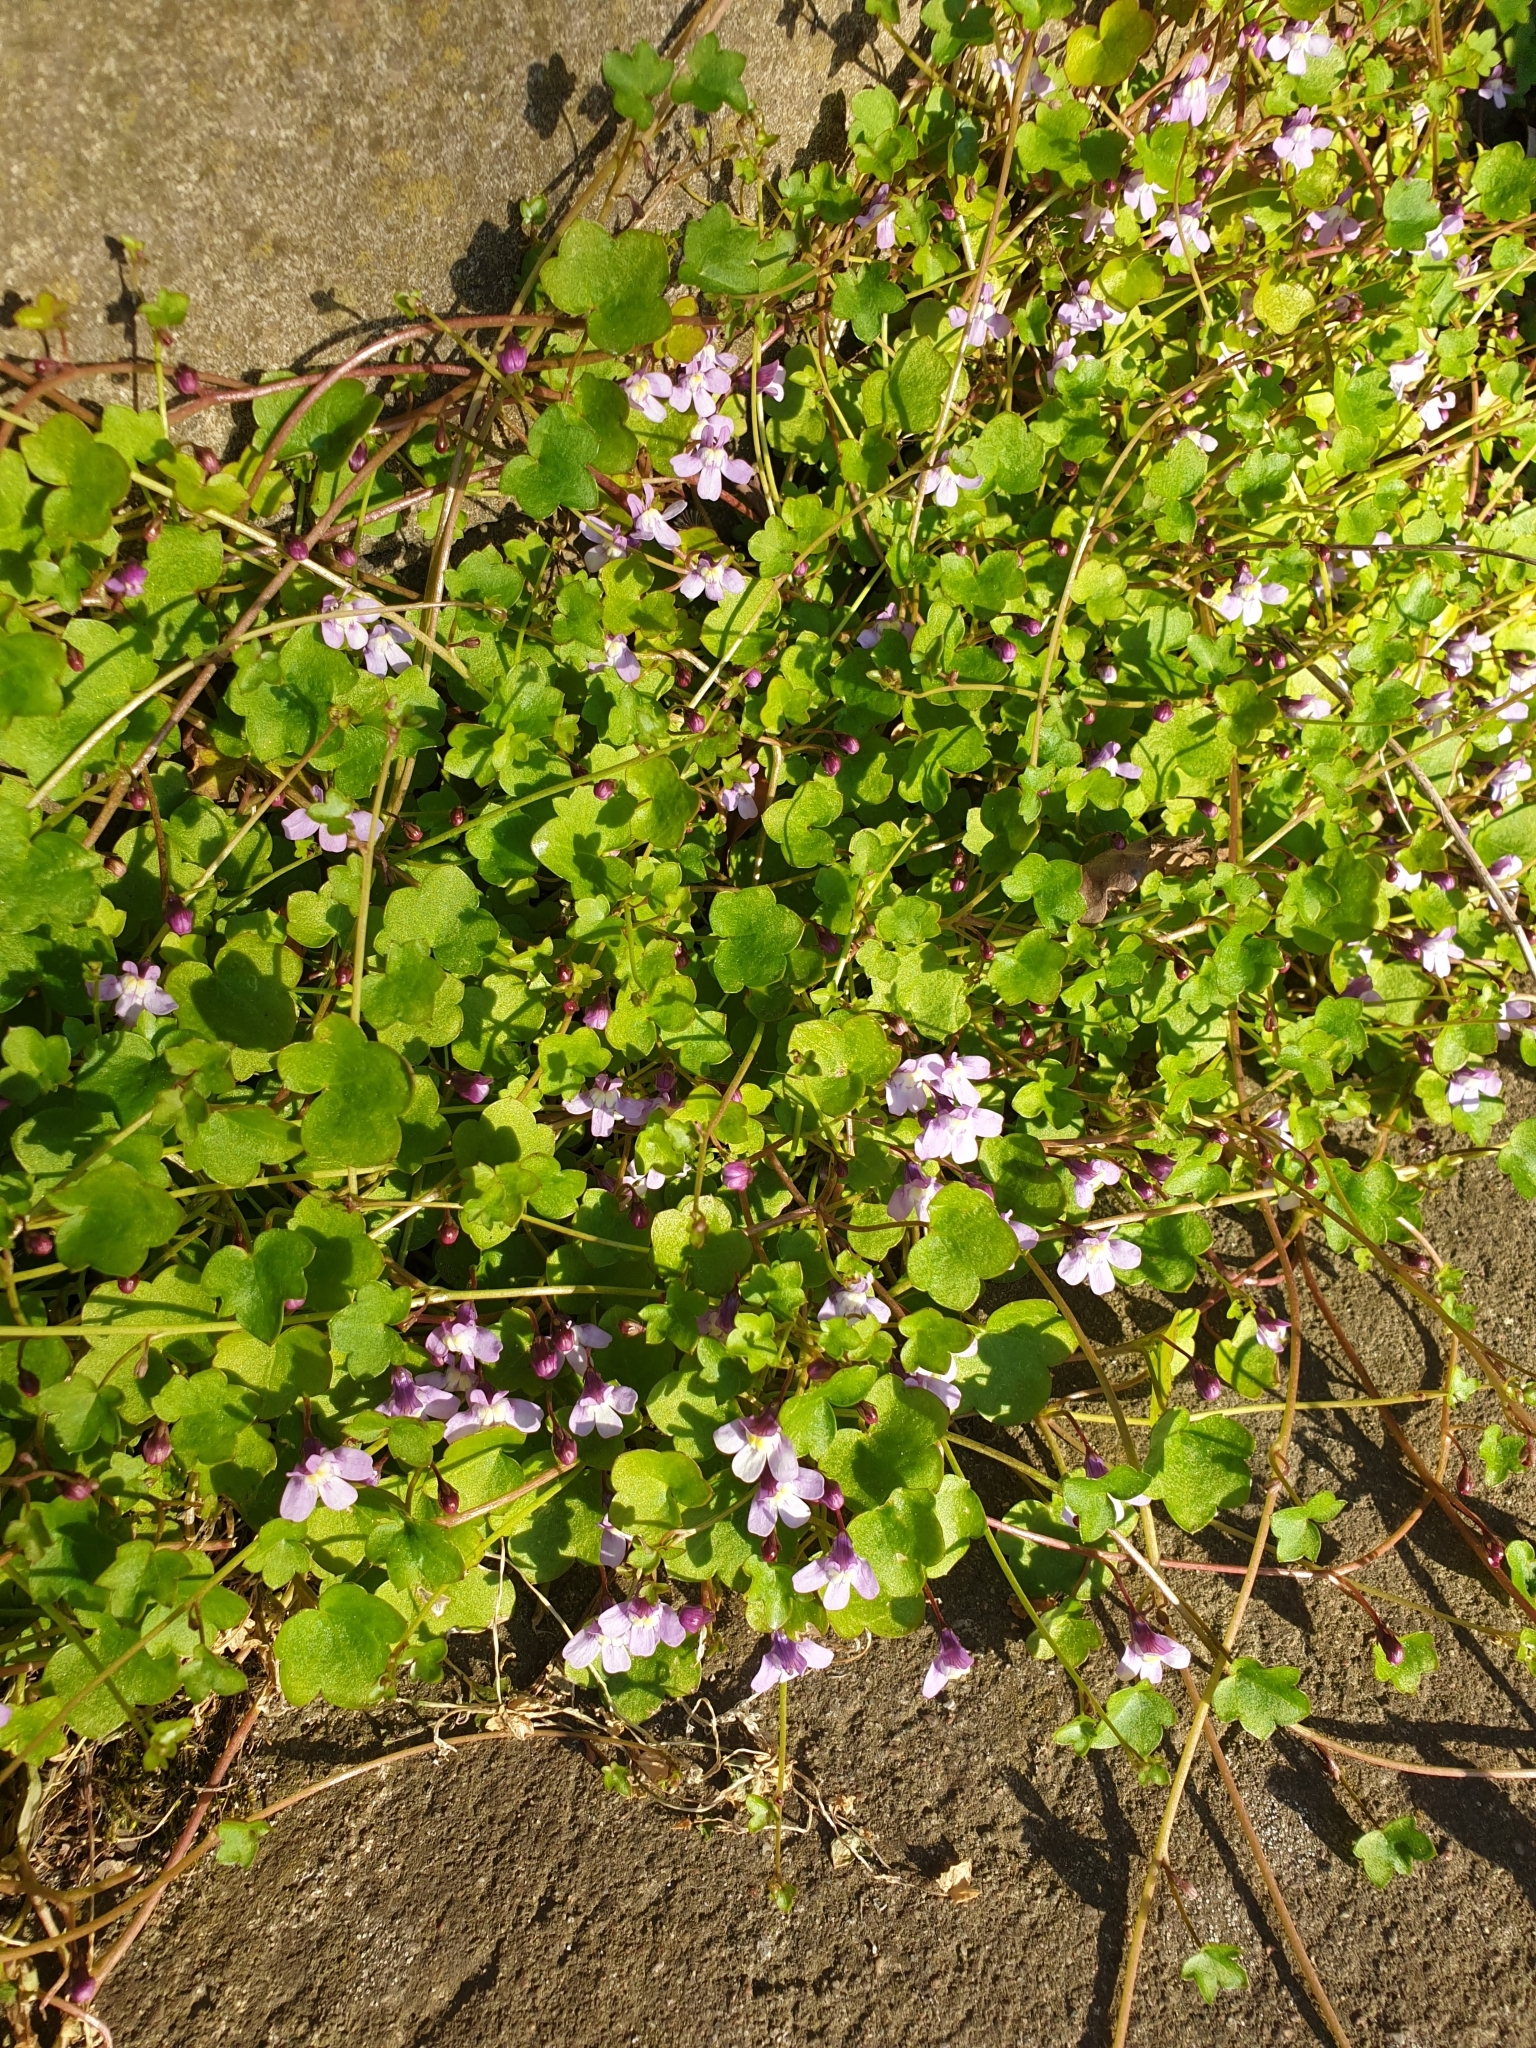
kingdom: Plantae
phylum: Tracheophyta
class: Magnoliopsida
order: Lamiales
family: Plantaginaceae
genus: Cymbalaria
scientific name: Cymbalaria muralis
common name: Ivy-leaved toadflax
